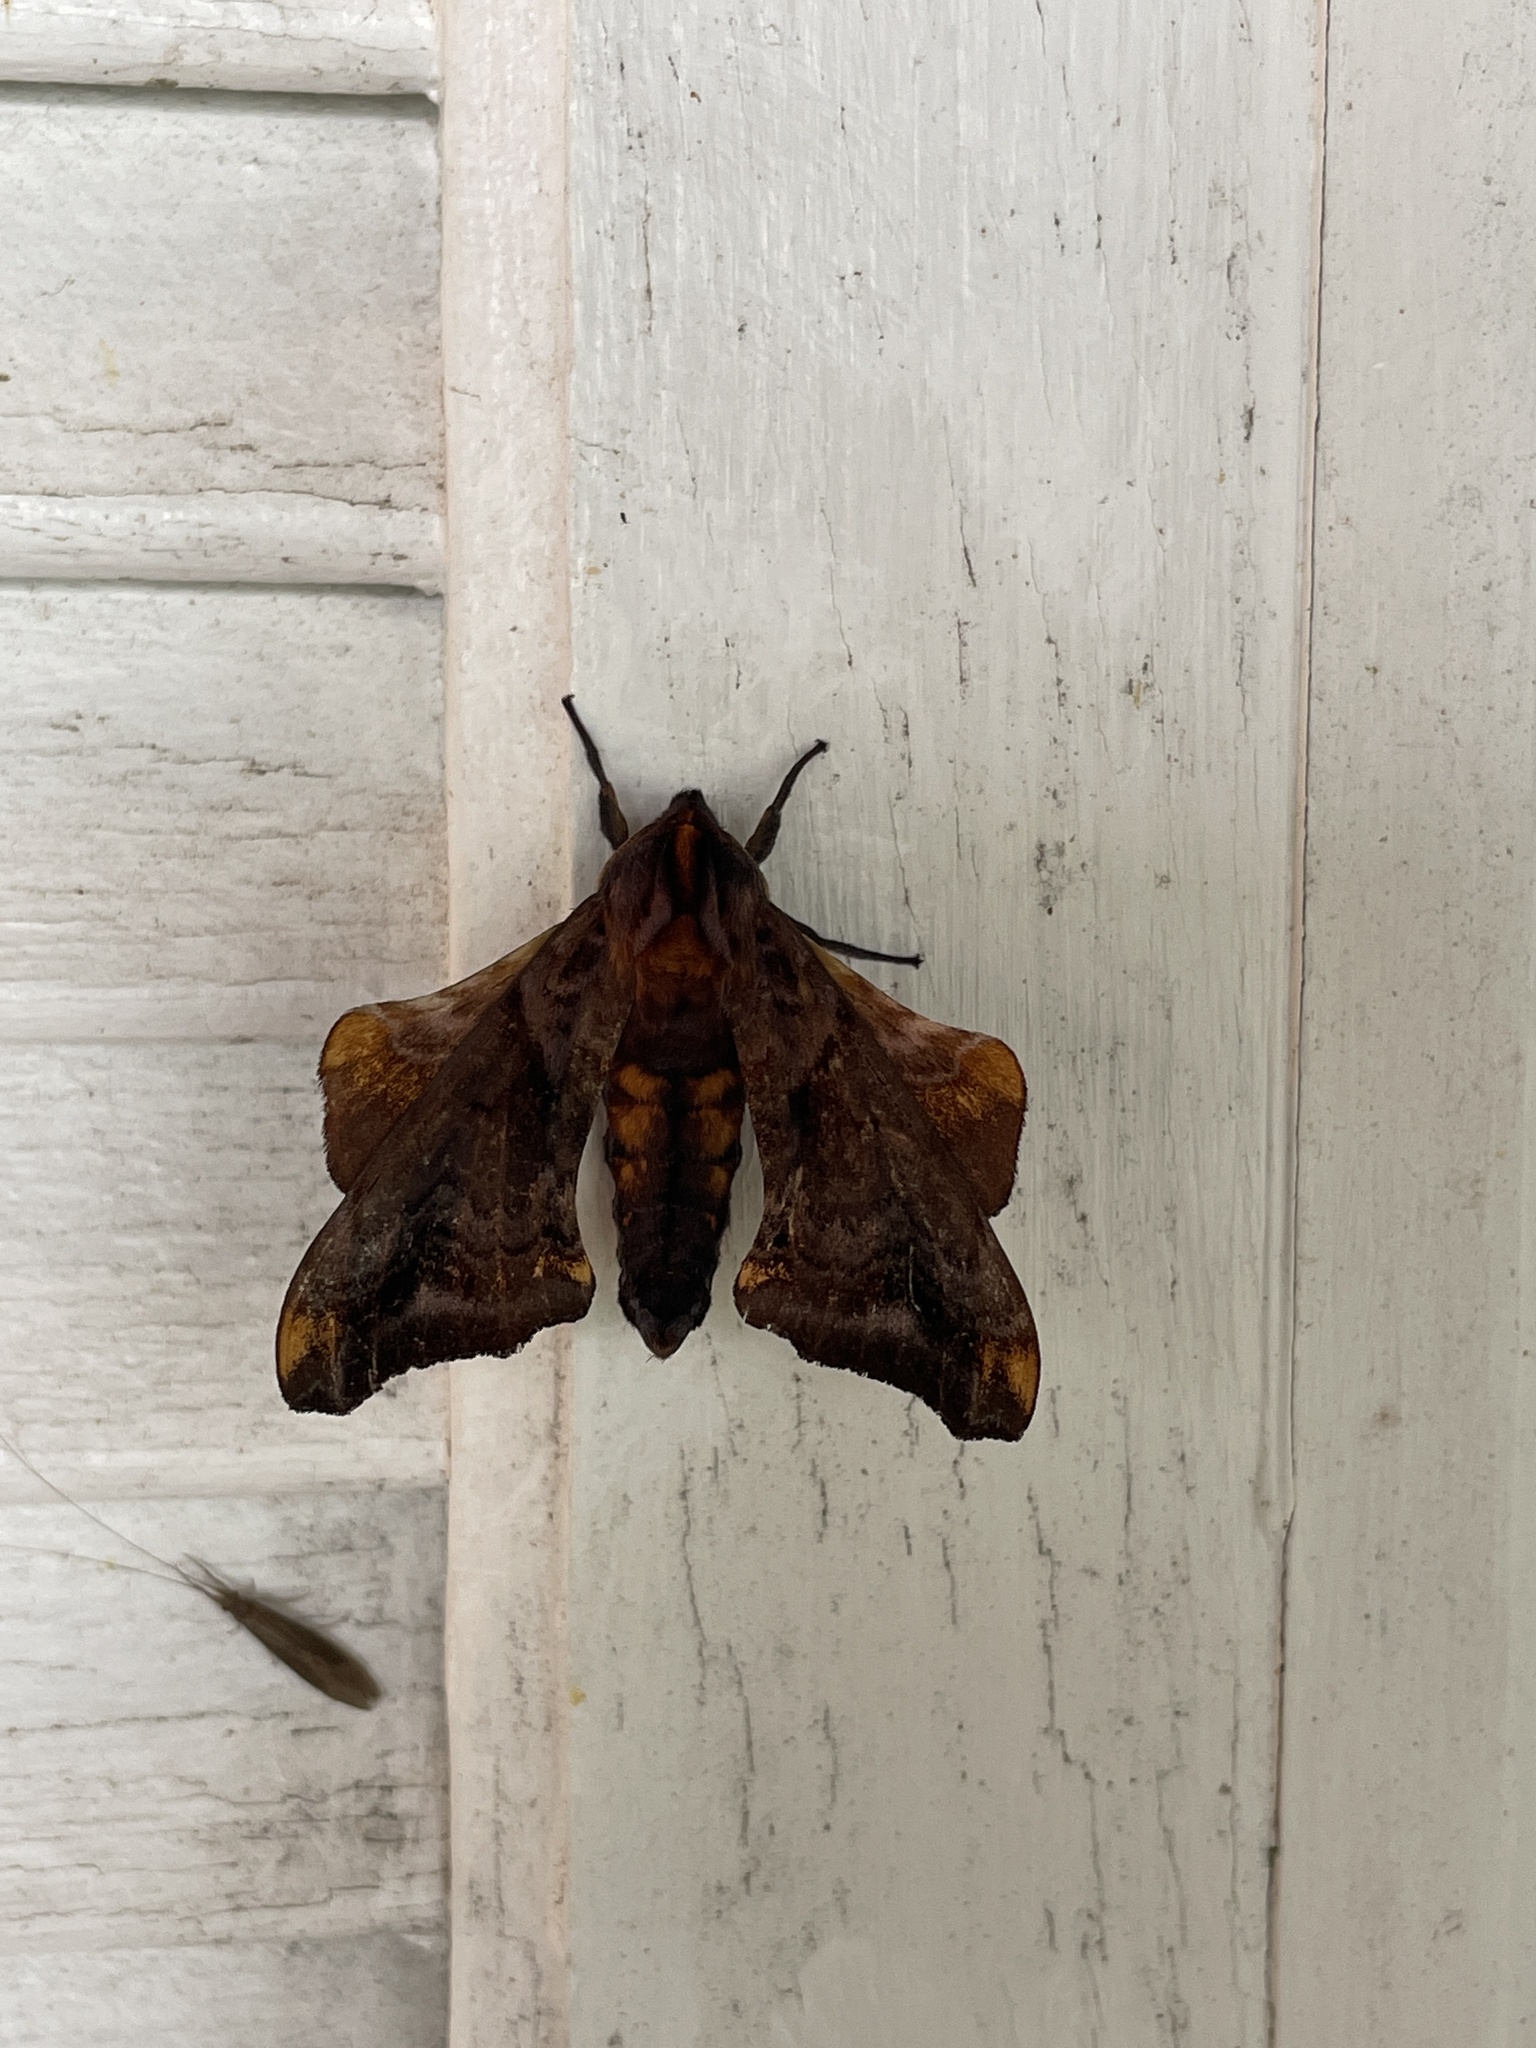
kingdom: Animalia
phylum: Arthropoda
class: Insecta
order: Lepidoptera
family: Sphingidae
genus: Paonias
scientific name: Paonias myops
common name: Small-eyed sphinx
